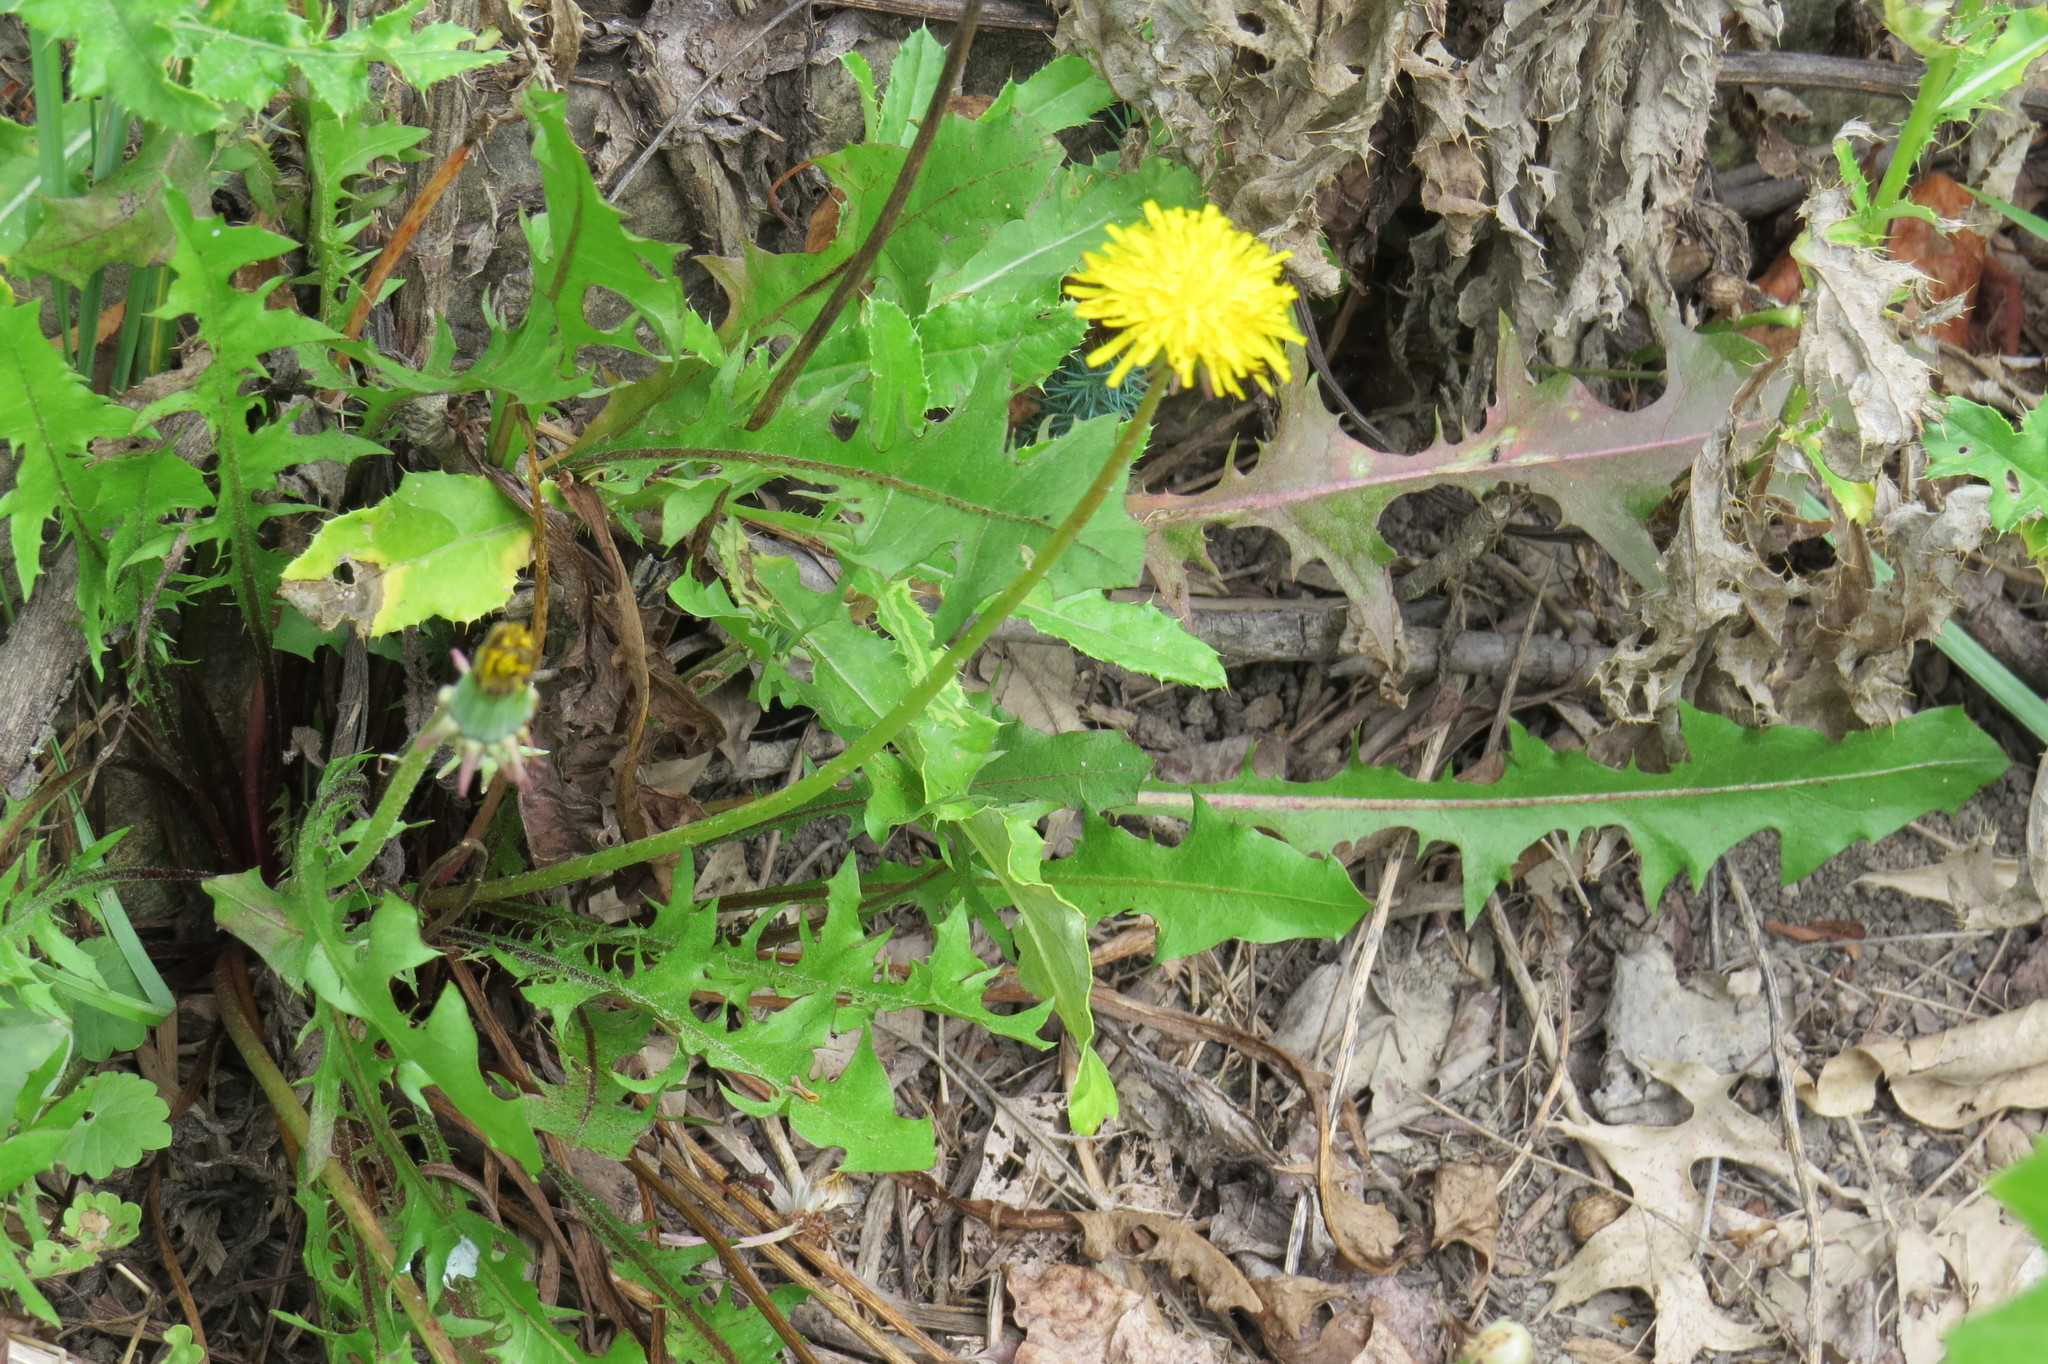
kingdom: Plantae
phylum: Tracheophyta
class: Magnoliopsida
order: Asterales
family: Asteraceae
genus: Taraxacum
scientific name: Taraxacum officinale
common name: Common dandelion
